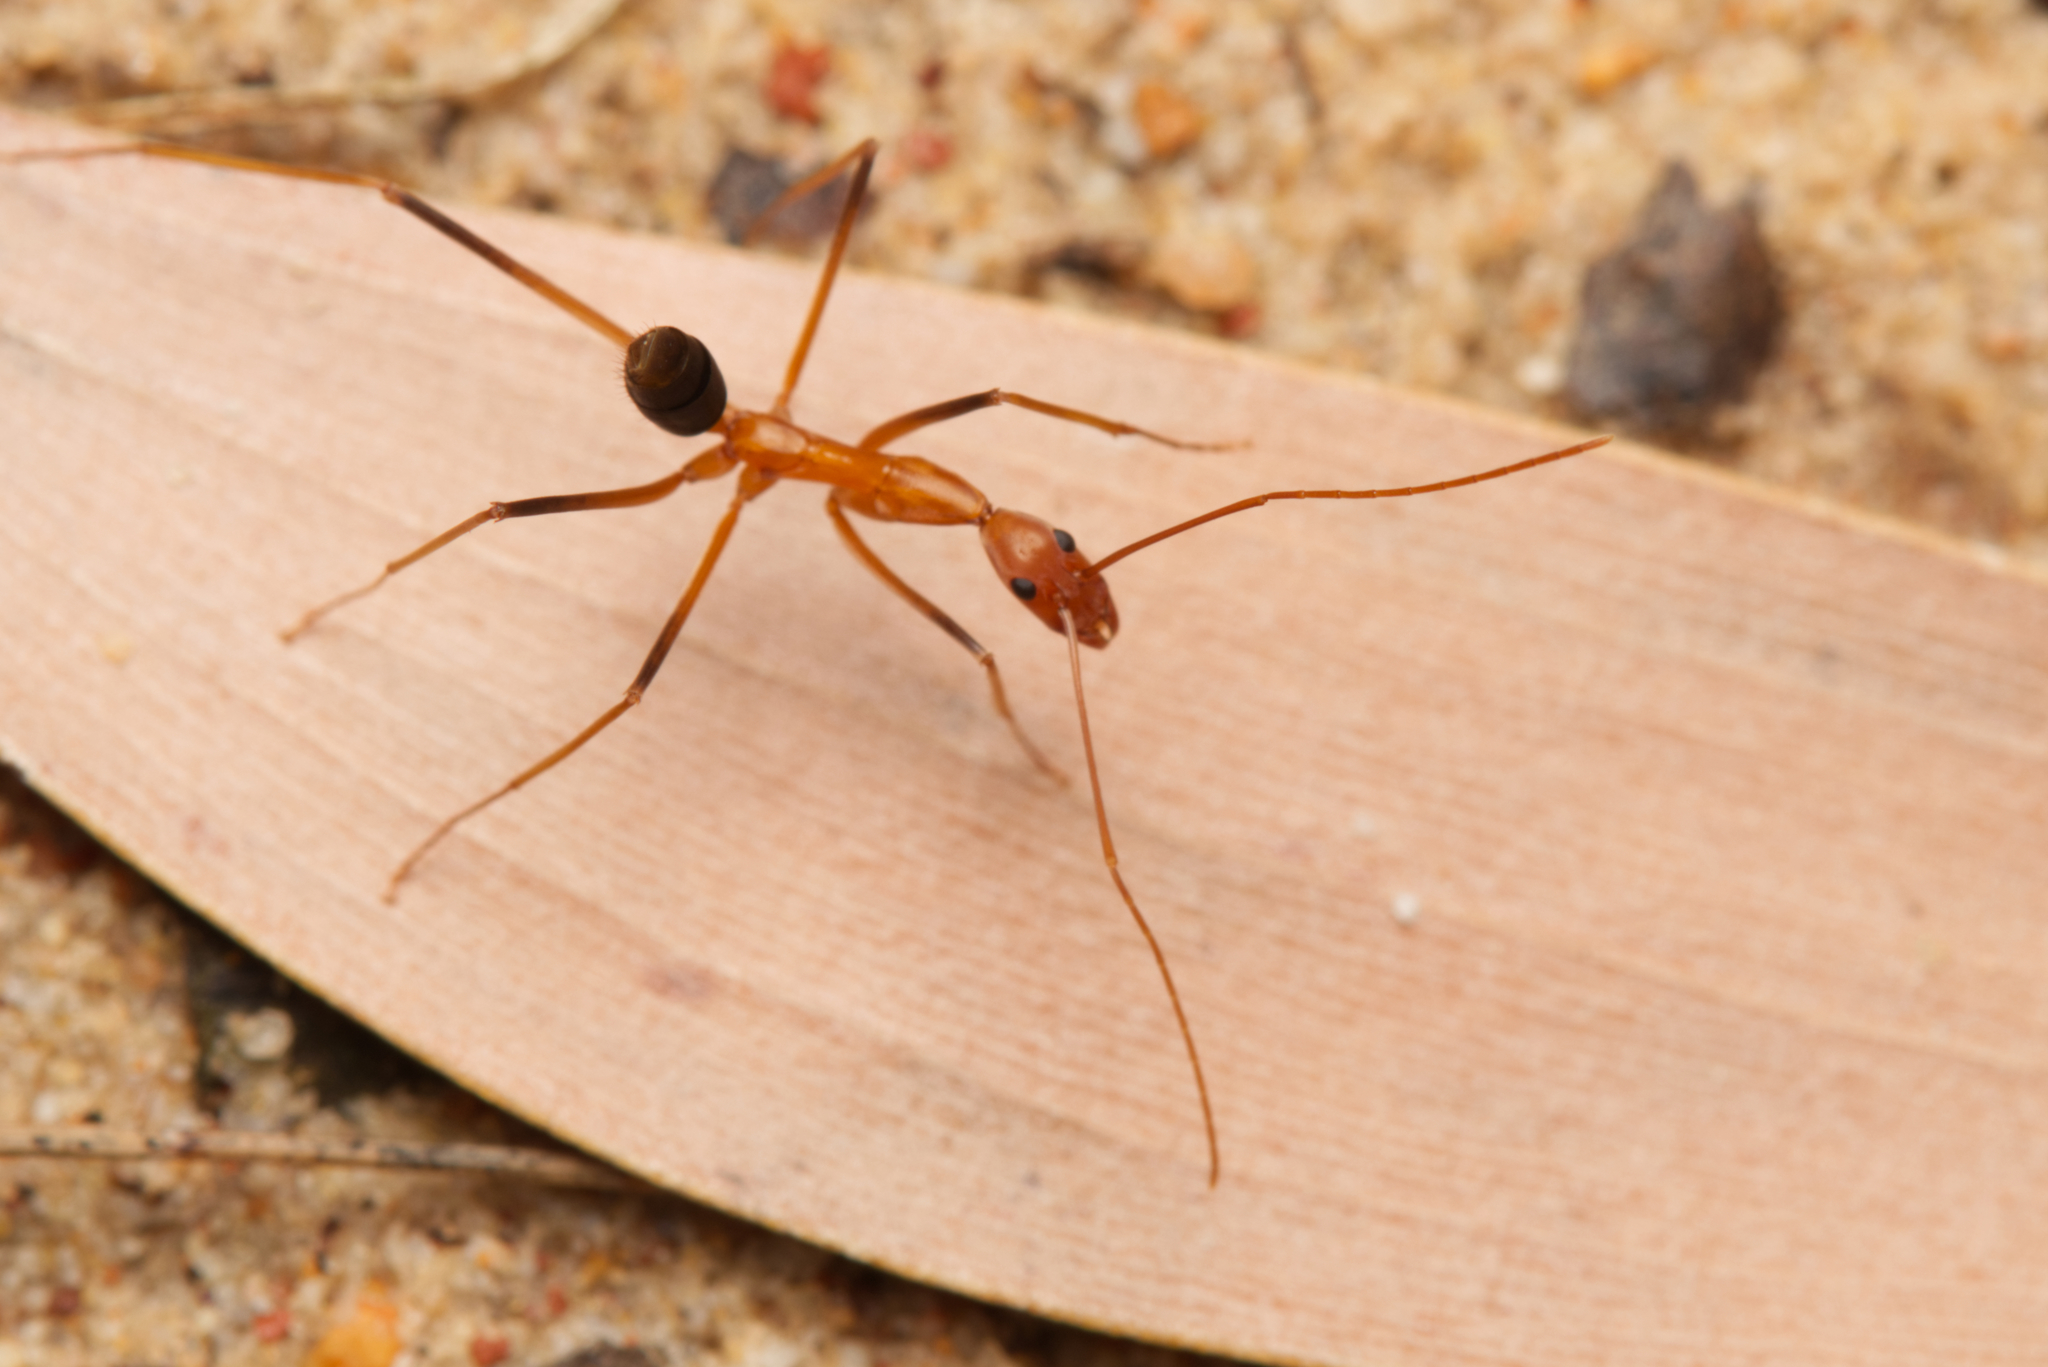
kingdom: Animalia
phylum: Arthropoda
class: Insecta
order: Hymenoptera
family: Formicidae
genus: Leptomyrmex
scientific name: Leptomyrmex rufipes
